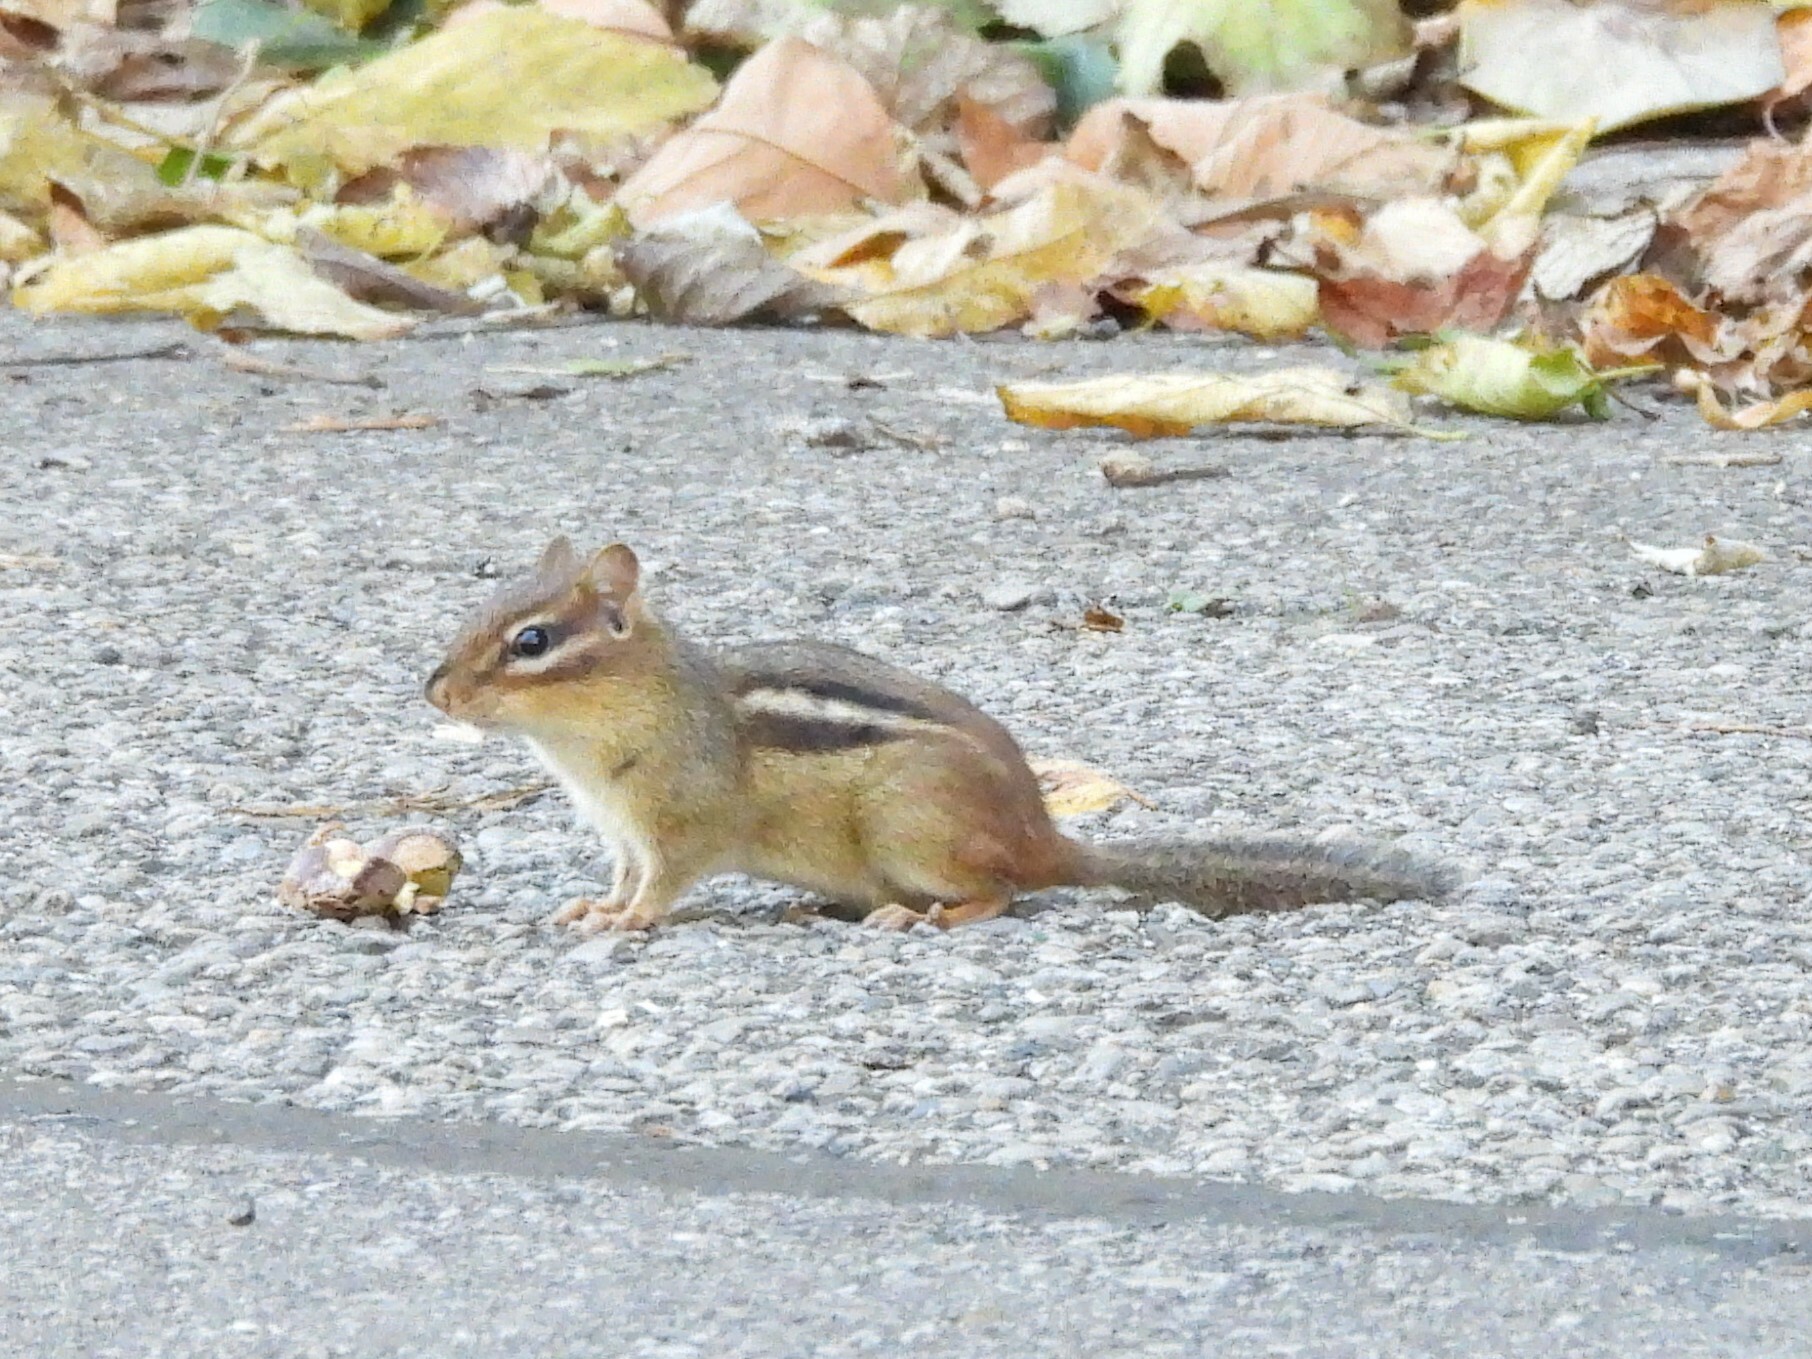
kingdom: Animalia
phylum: Chordata
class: Mammalia
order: Rodentia
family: Sciuridae
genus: Tamias
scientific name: Tamias striatus
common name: Eastern chipmunk
